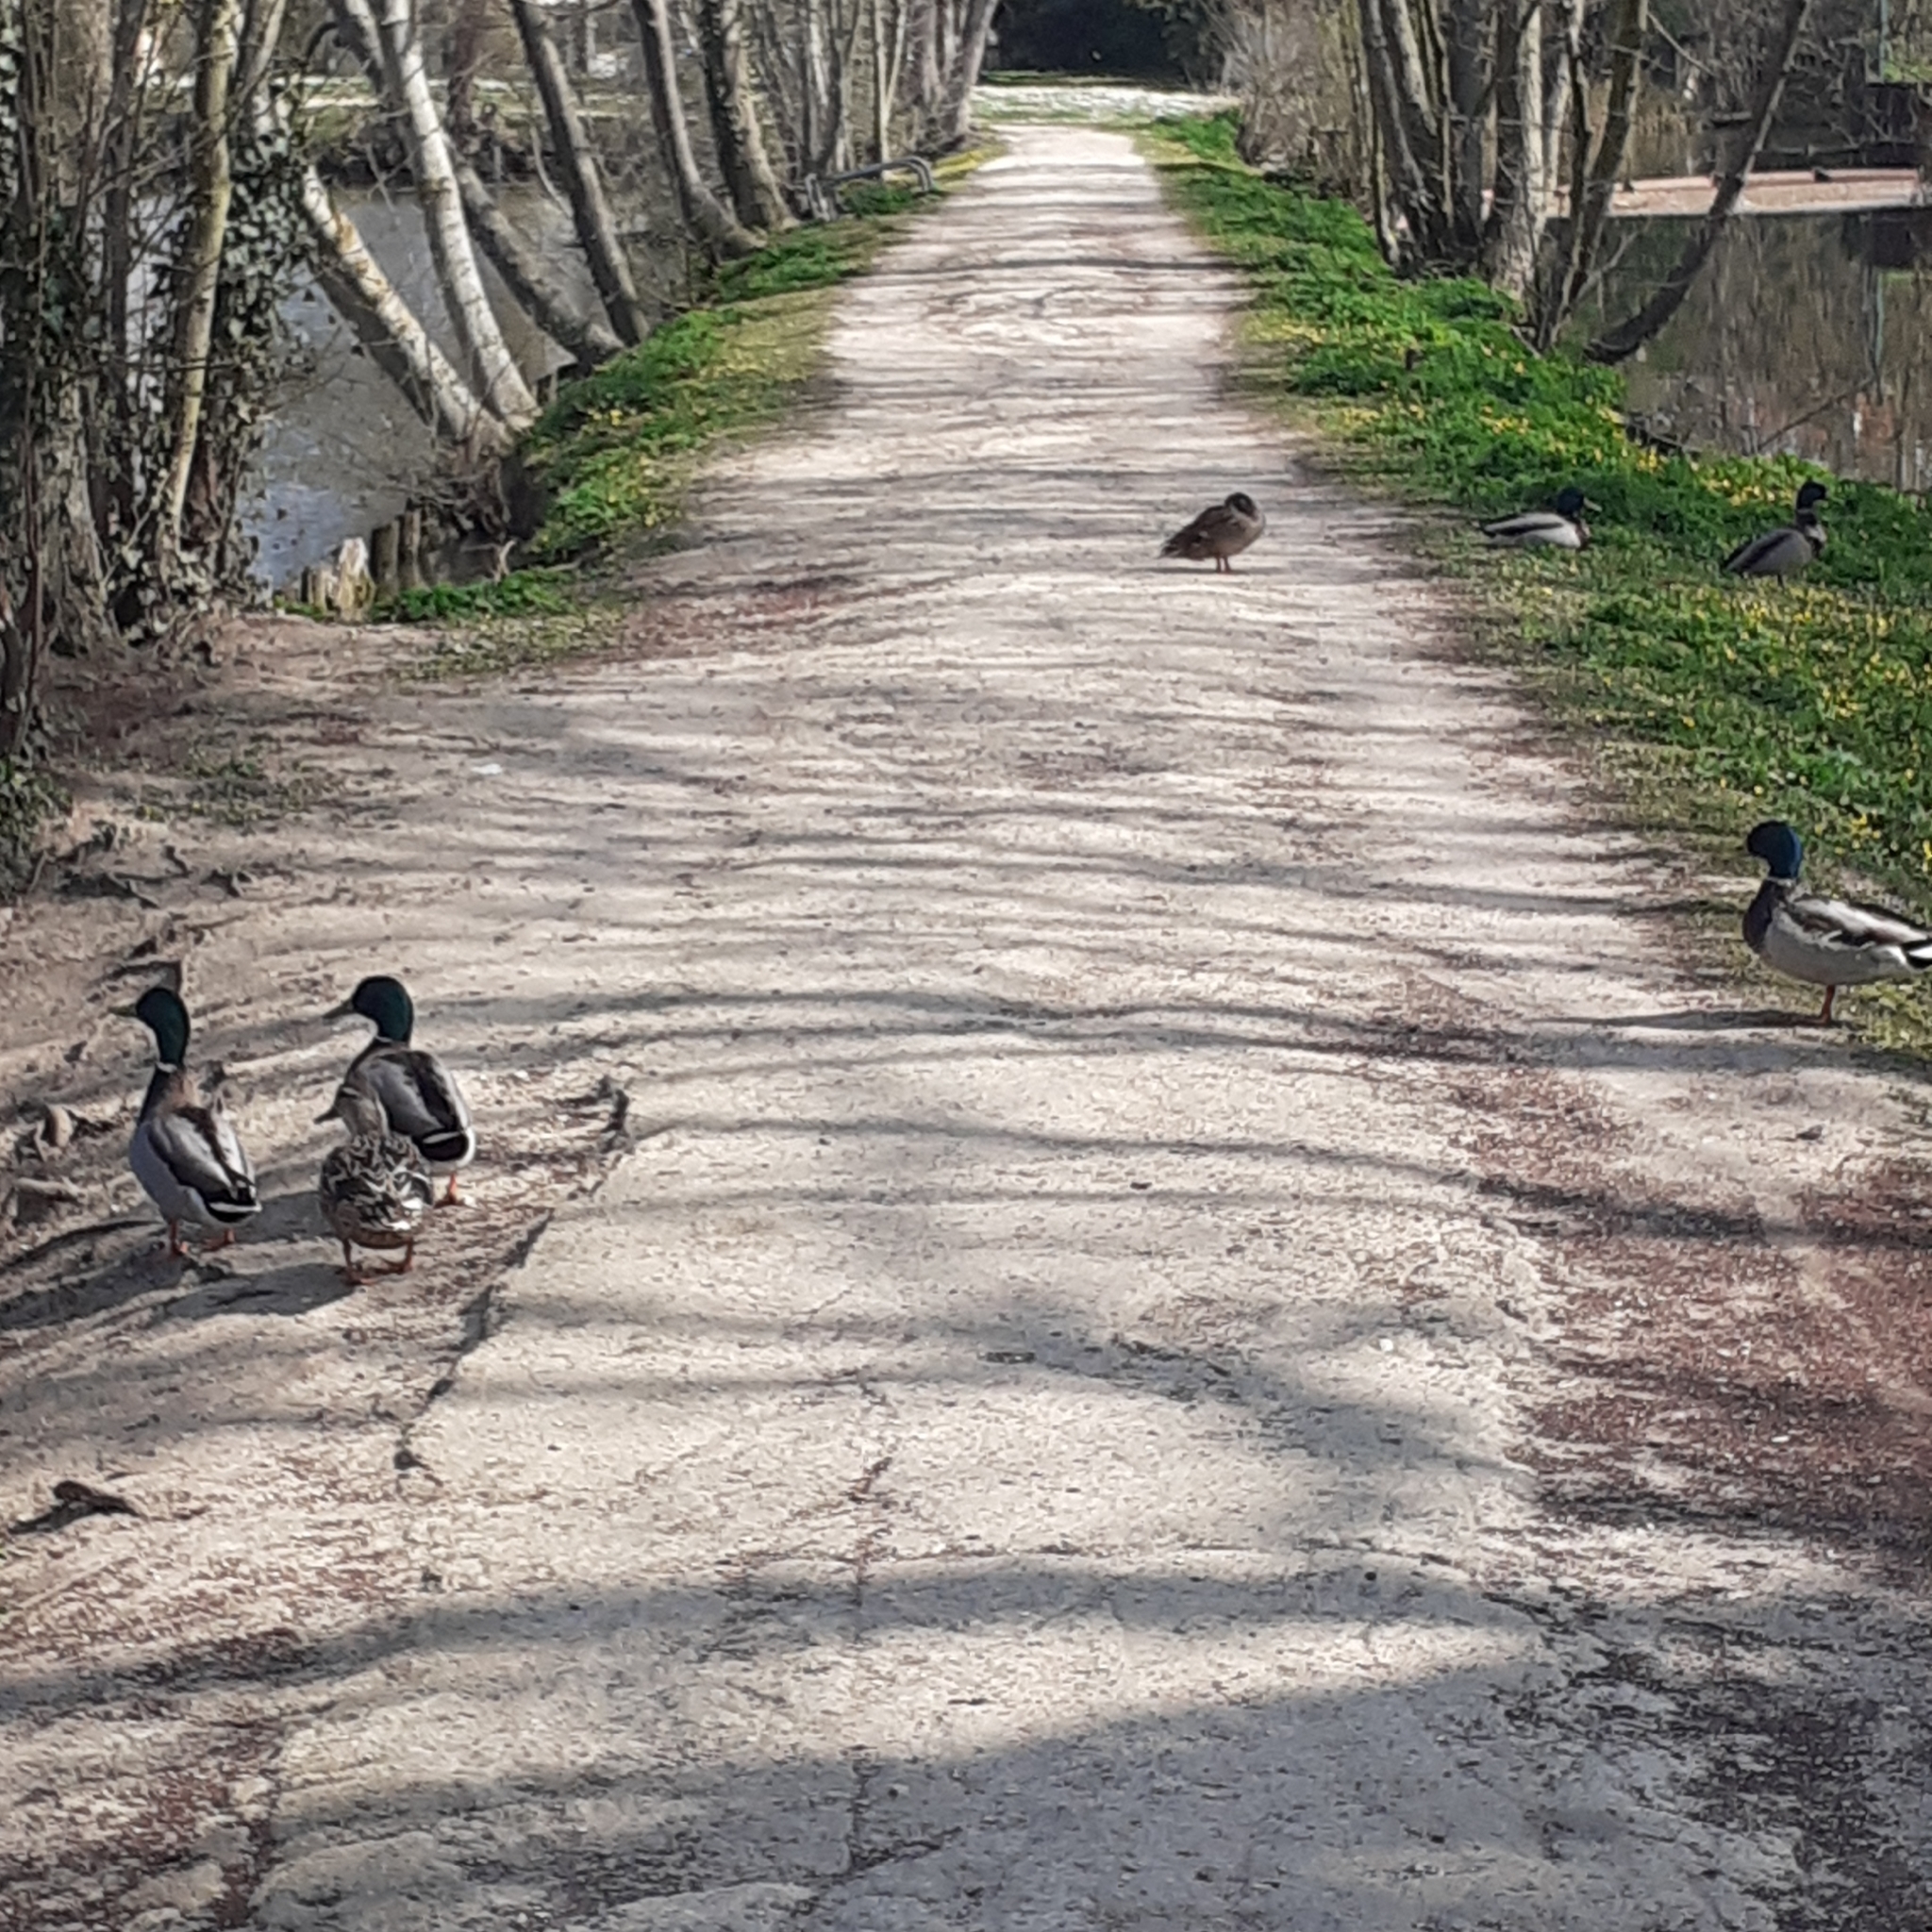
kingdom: Animalia
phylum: Chordata
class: Aves
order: Anseriformes
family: Anatidae
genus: Anas
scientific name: Anas platyrhynchos
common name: Mallard
